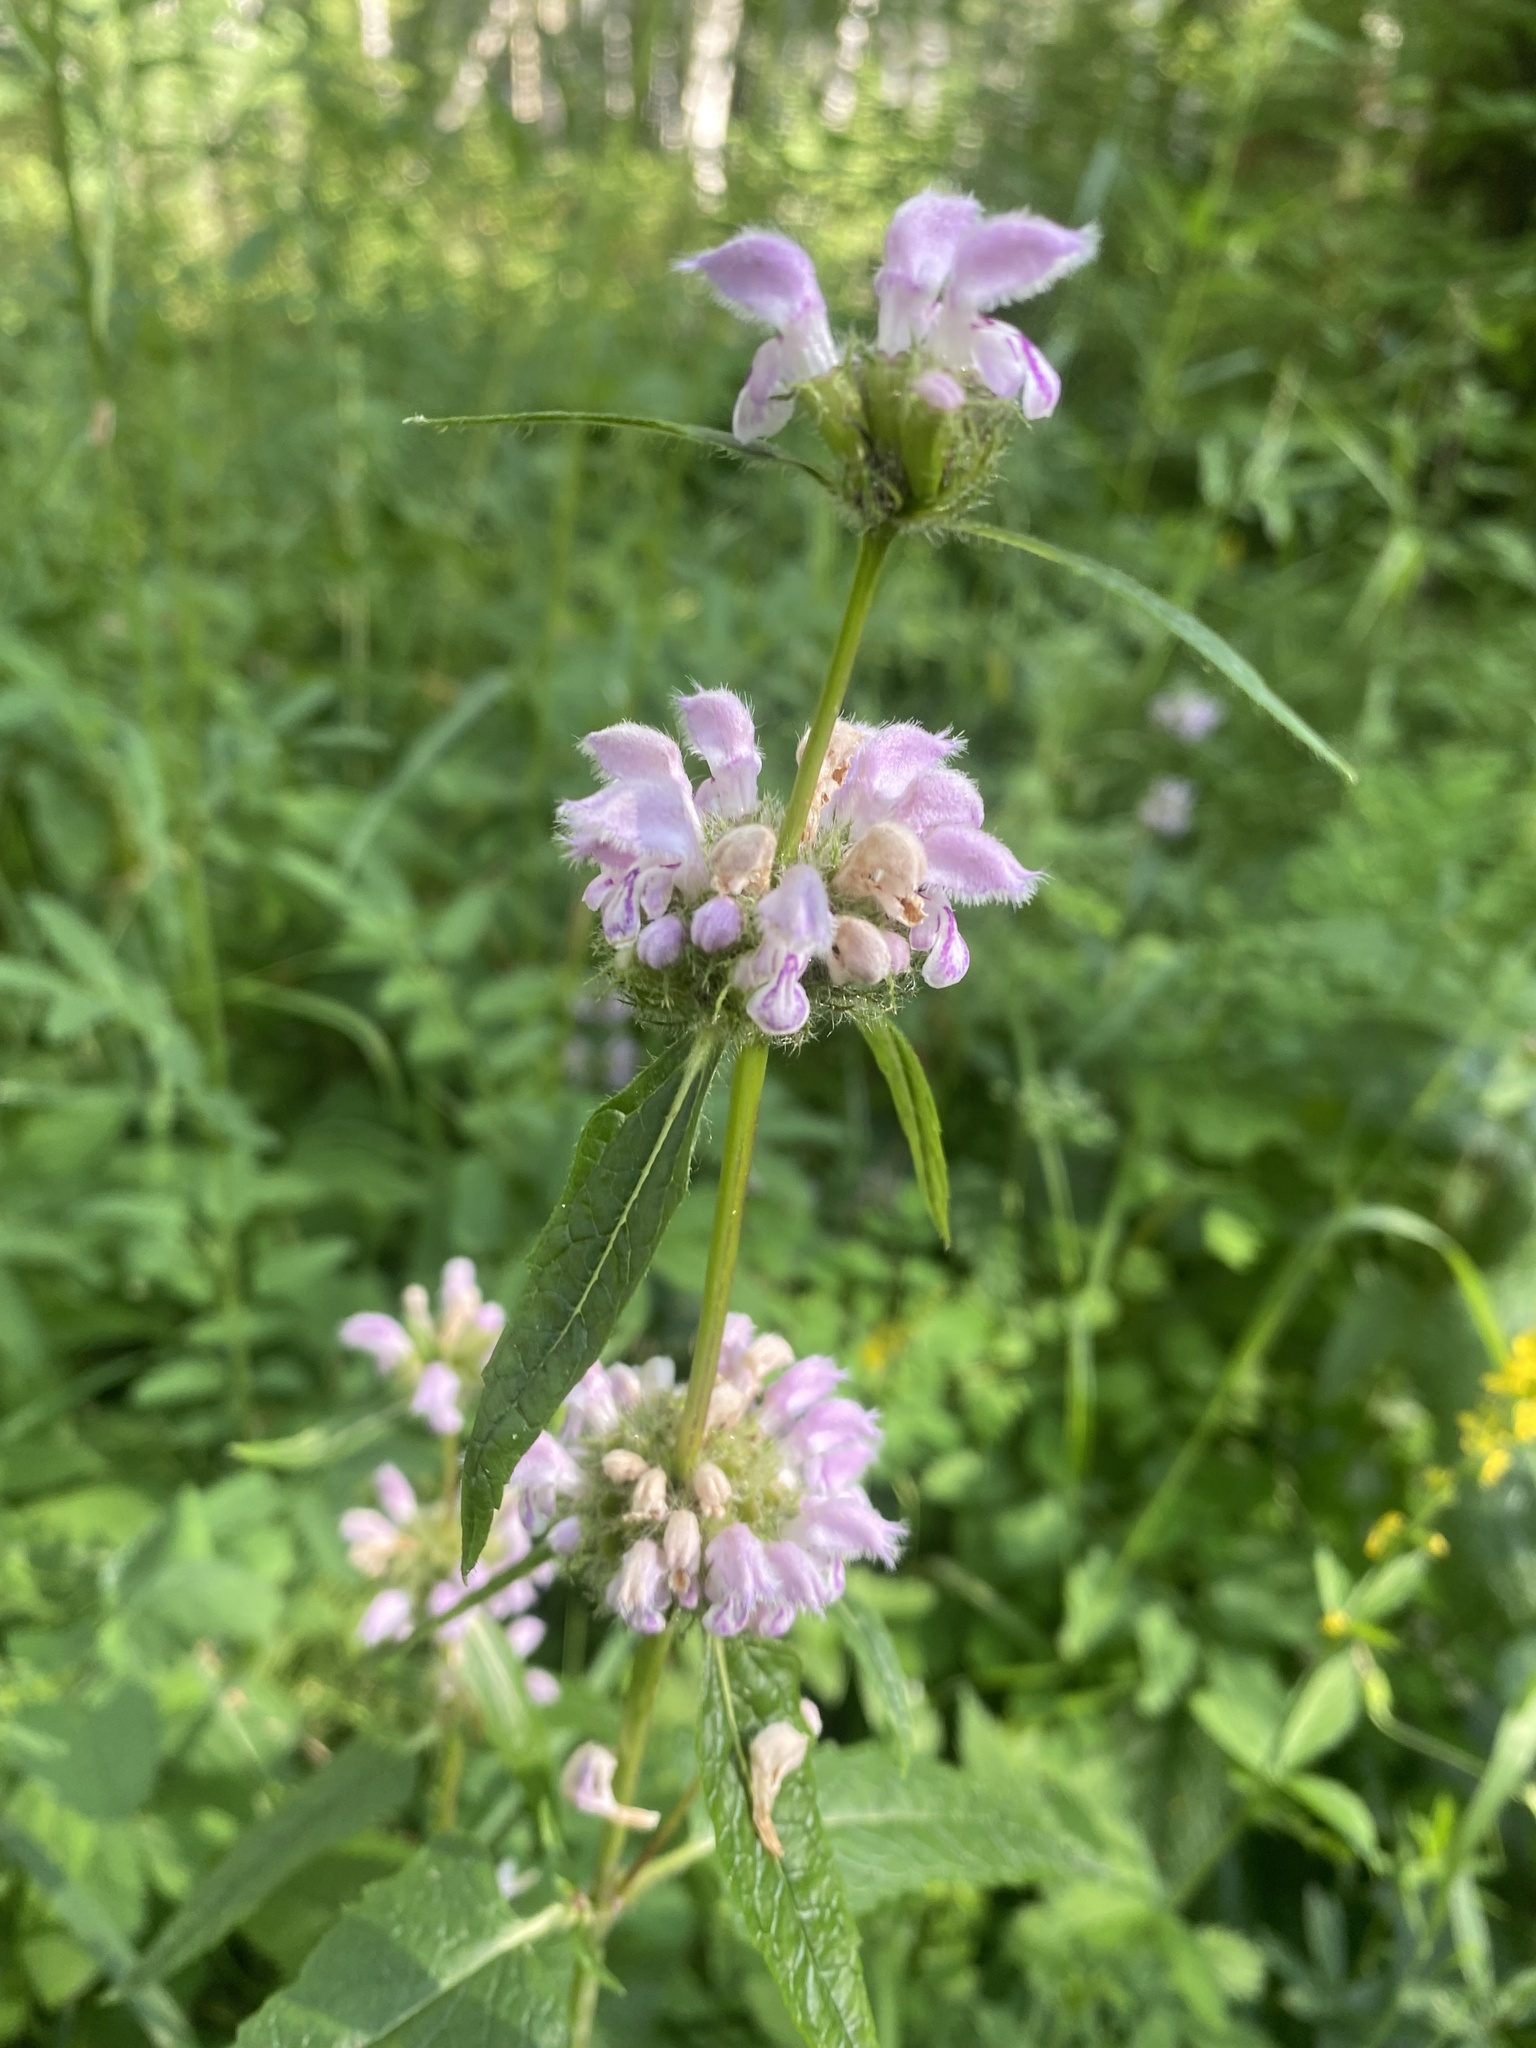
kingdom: Plantae
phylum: Tracheophyta
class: Magnoliopsida
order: Lamiales
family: Lamiaceae
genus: Phlomoides
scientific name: Phlomoides tuberosa
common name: Tuberous jerusalem sage
